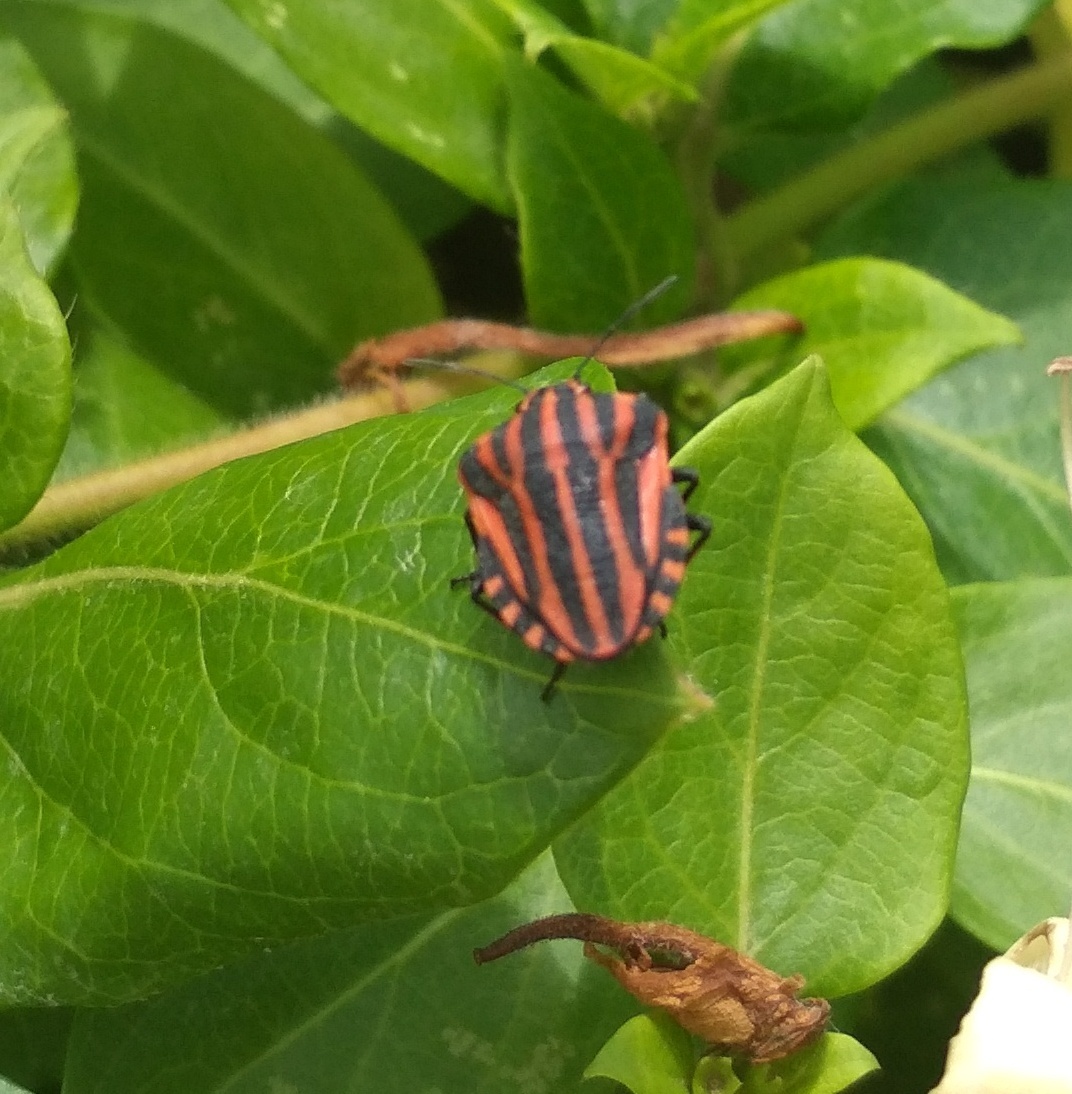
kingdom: Animalia
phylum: Arthropoda
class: Insecta
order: Hemiptera
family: Pentatomidae
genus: Graphosoma
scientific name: Graphosoma italicum
